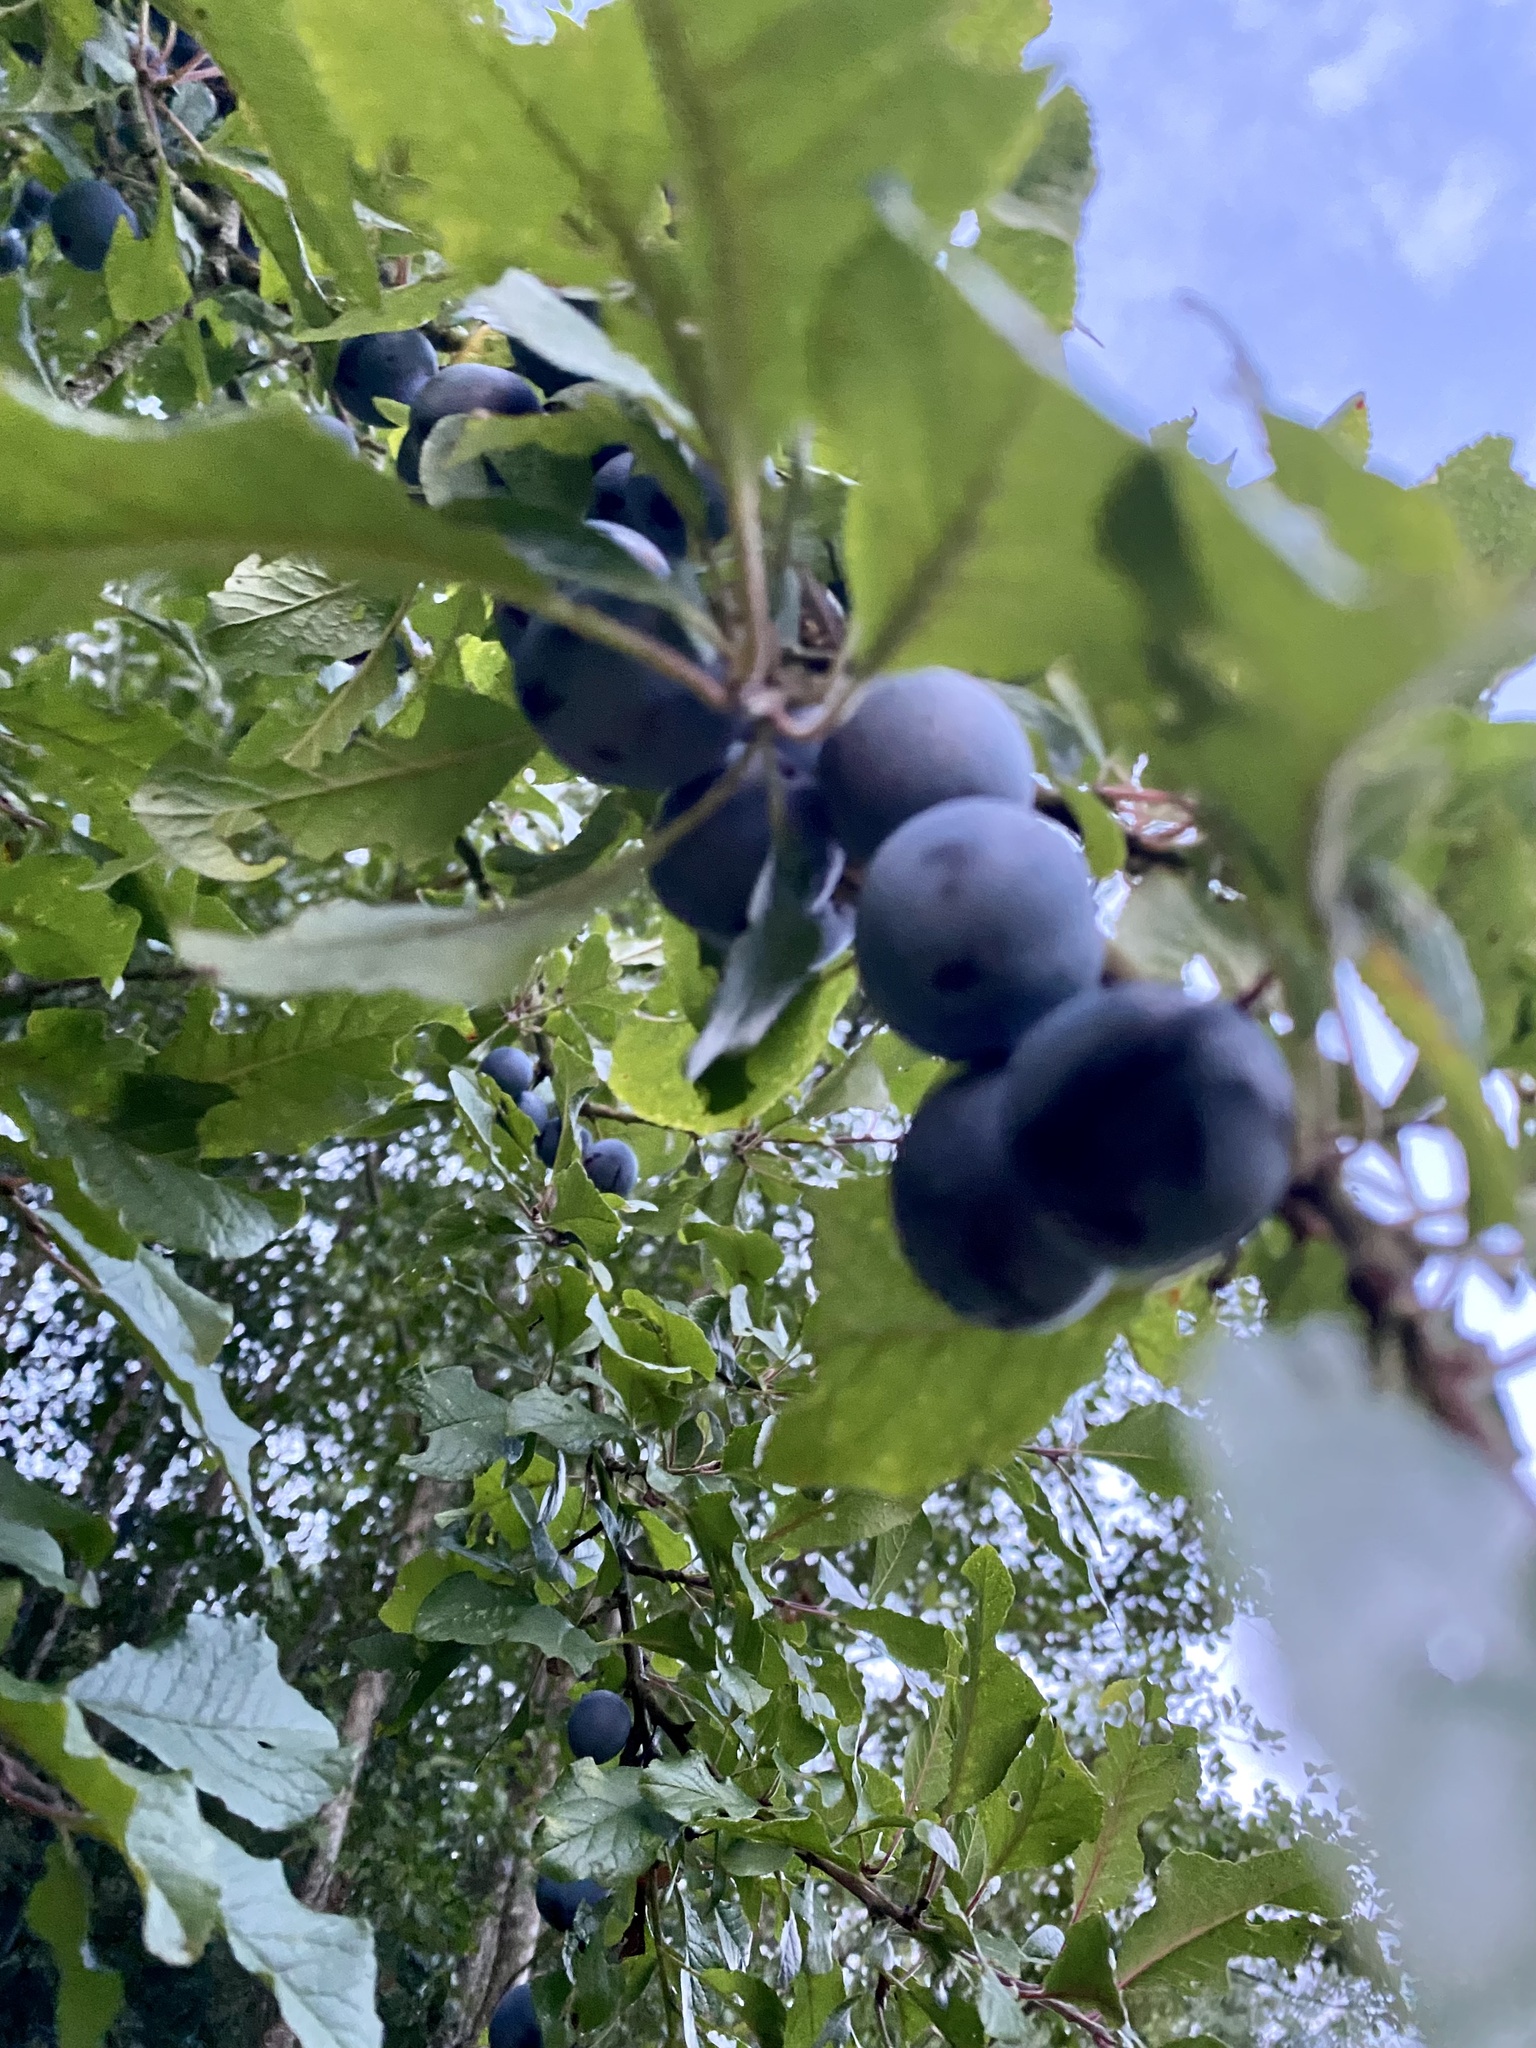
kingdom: Plantae
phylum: Tracheophyta
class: Magnoliopsida
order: Rosales
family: Rosaceae
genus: Prunus
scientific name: Prunus domestica
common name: Wild plum
